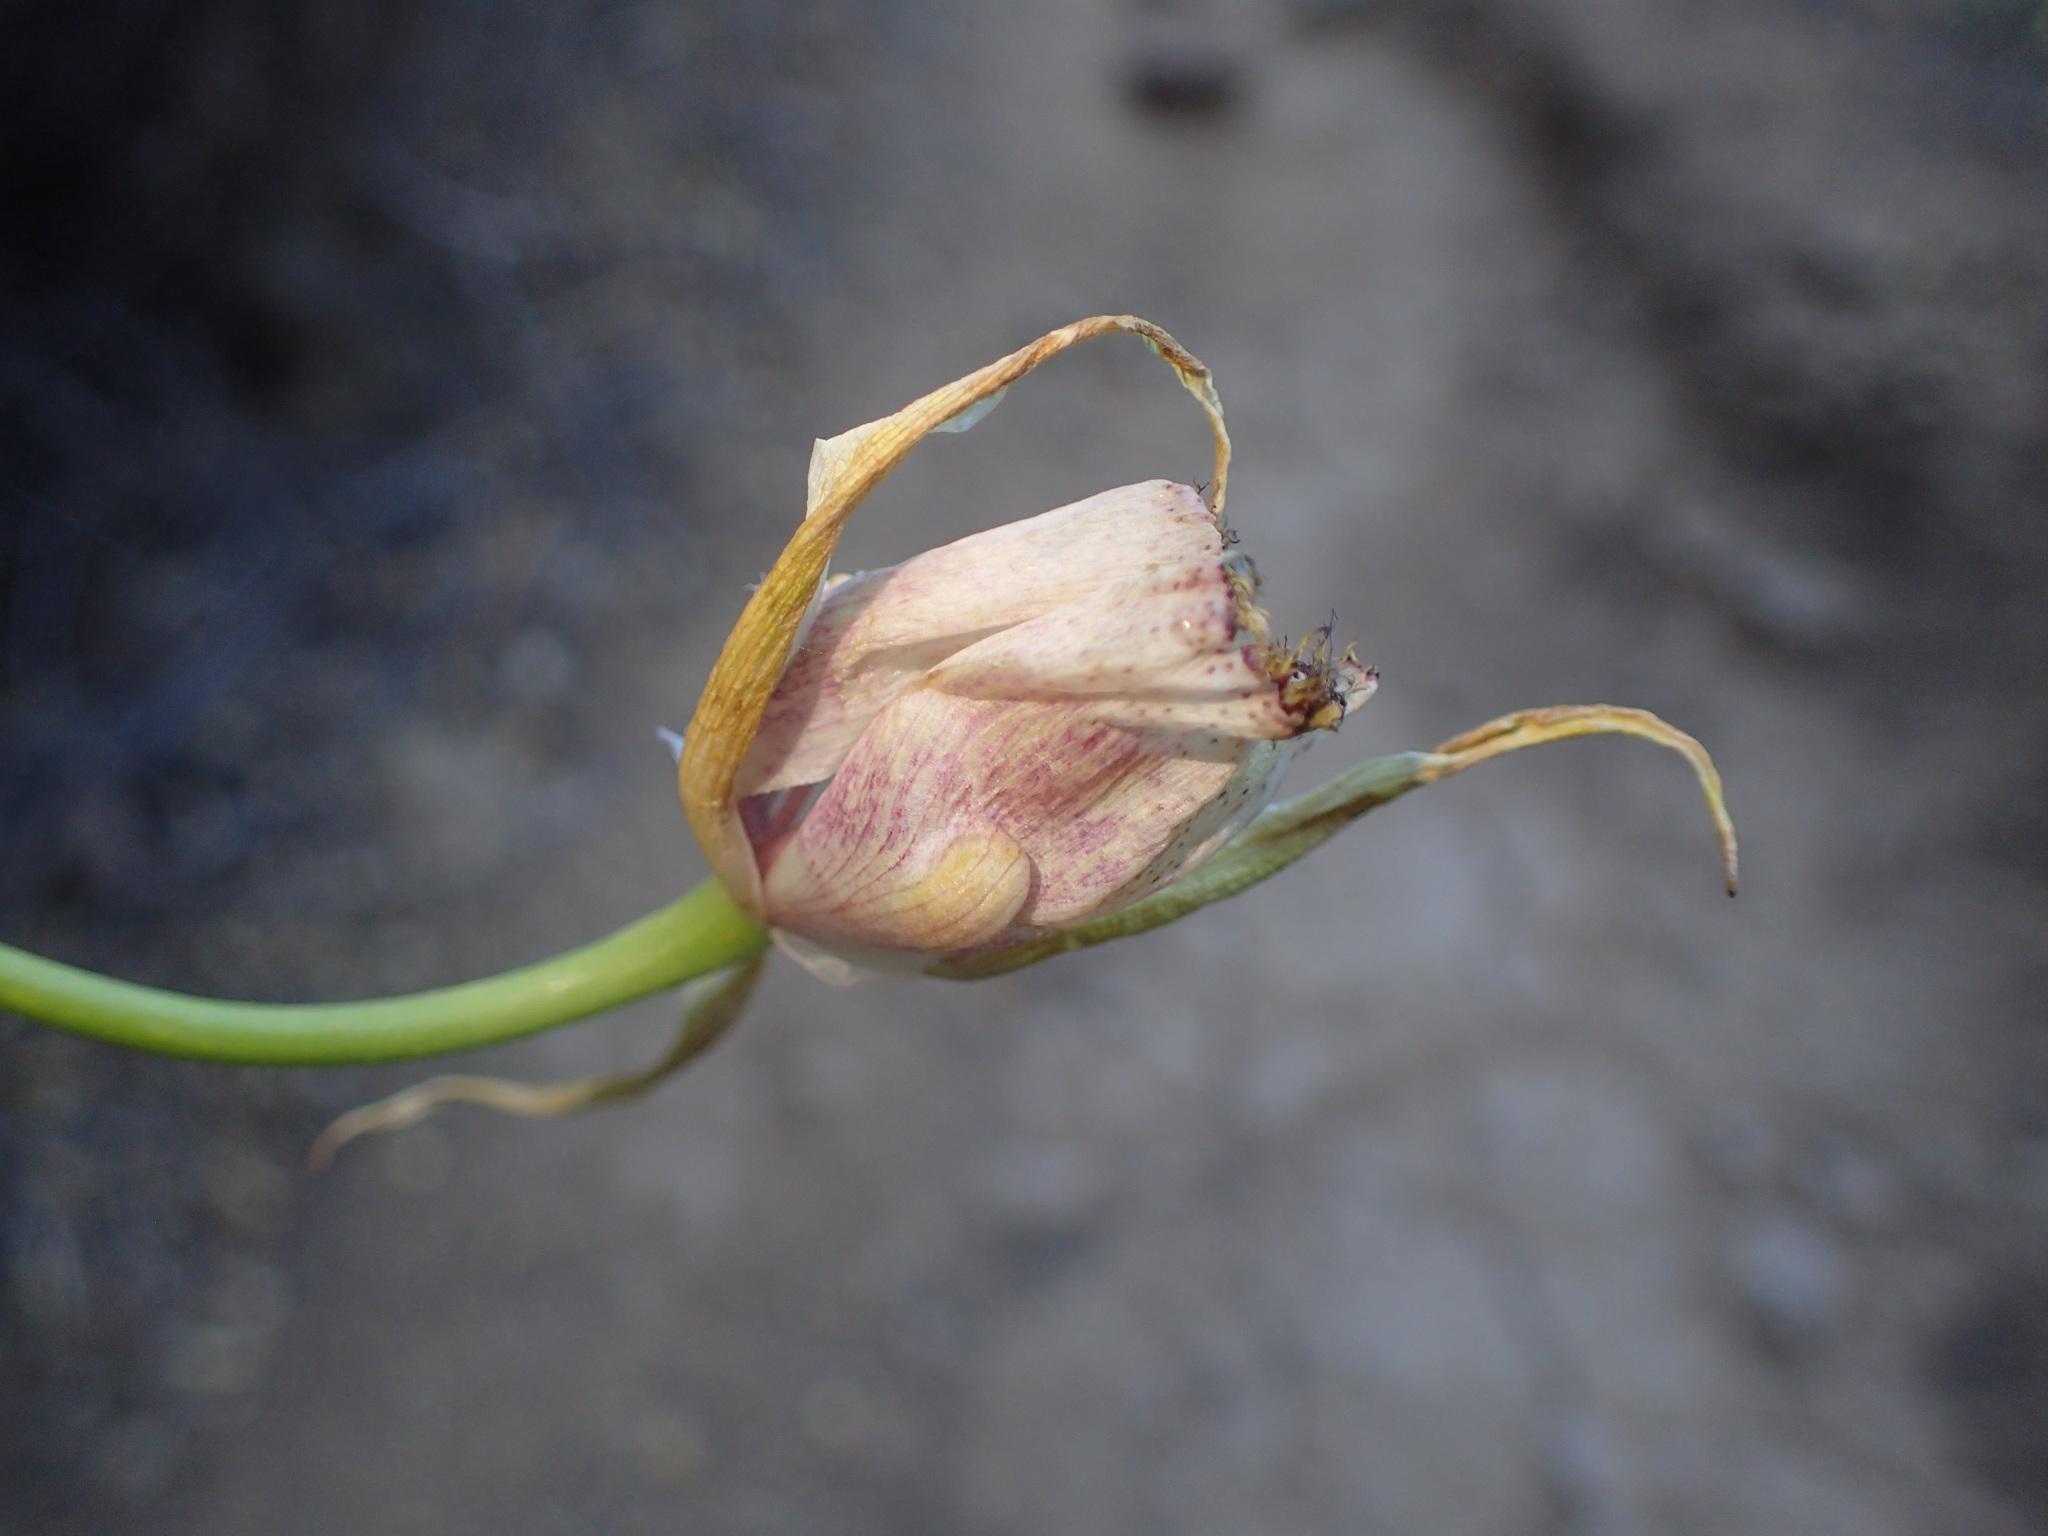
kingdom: Plantae
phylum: Tracheophyta
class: Liliopsida
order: Liliales
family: Liliaceae
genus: Calochortus
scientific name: Calochortus fimbriatus
